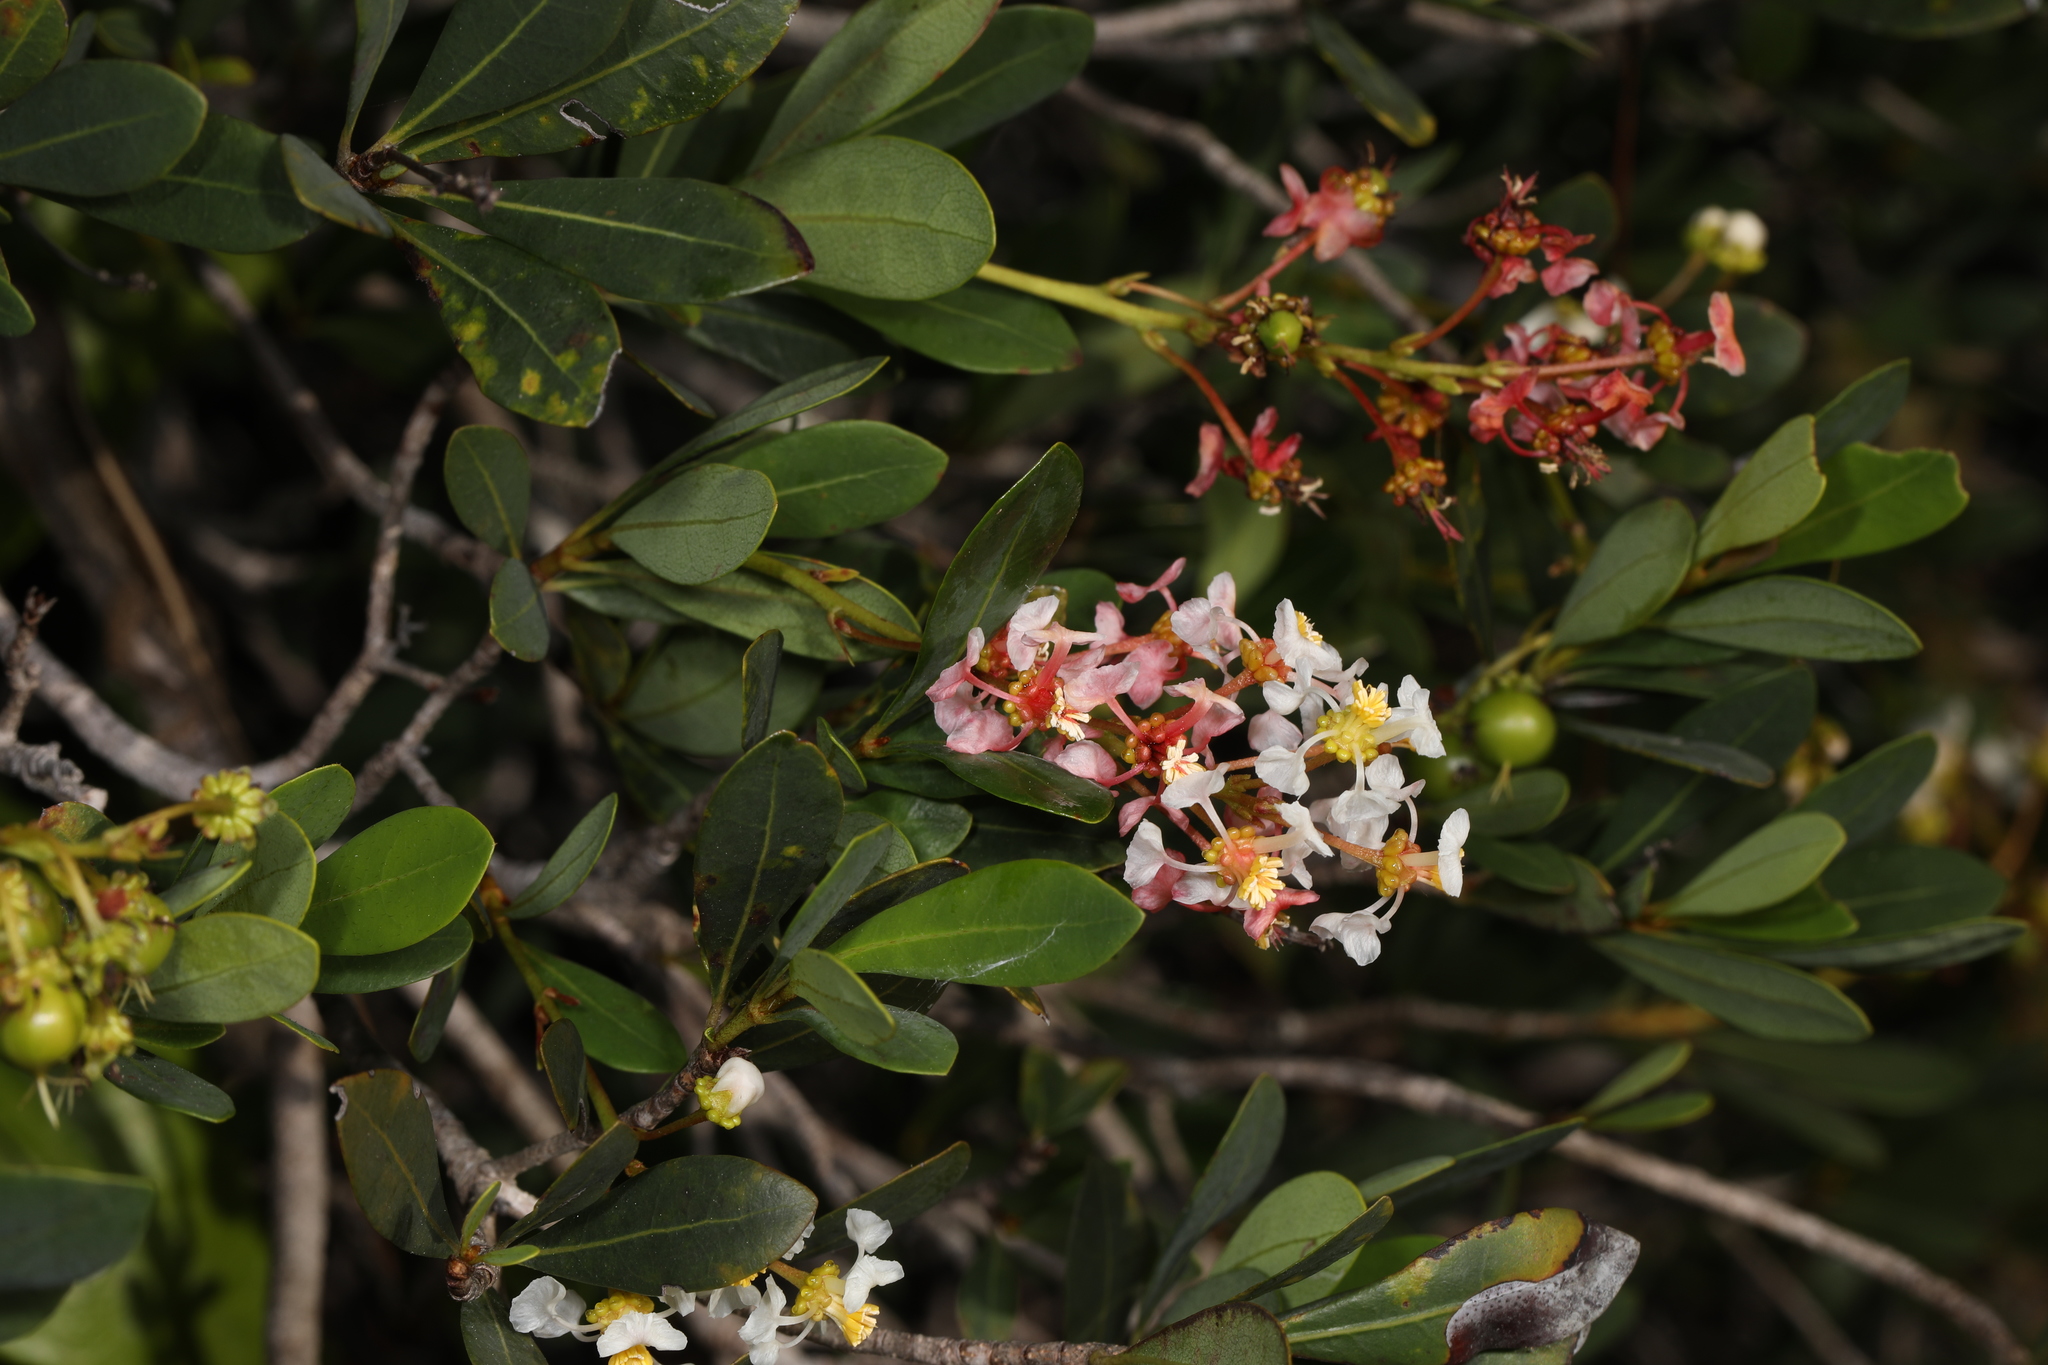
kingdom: Plantae
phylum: Tracheophyta
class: Magnoliopsida
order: Malpighiales
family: Malpighiaceae
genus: Byrsonima
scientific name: Byrsonima lucida
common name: Clam-cherry
